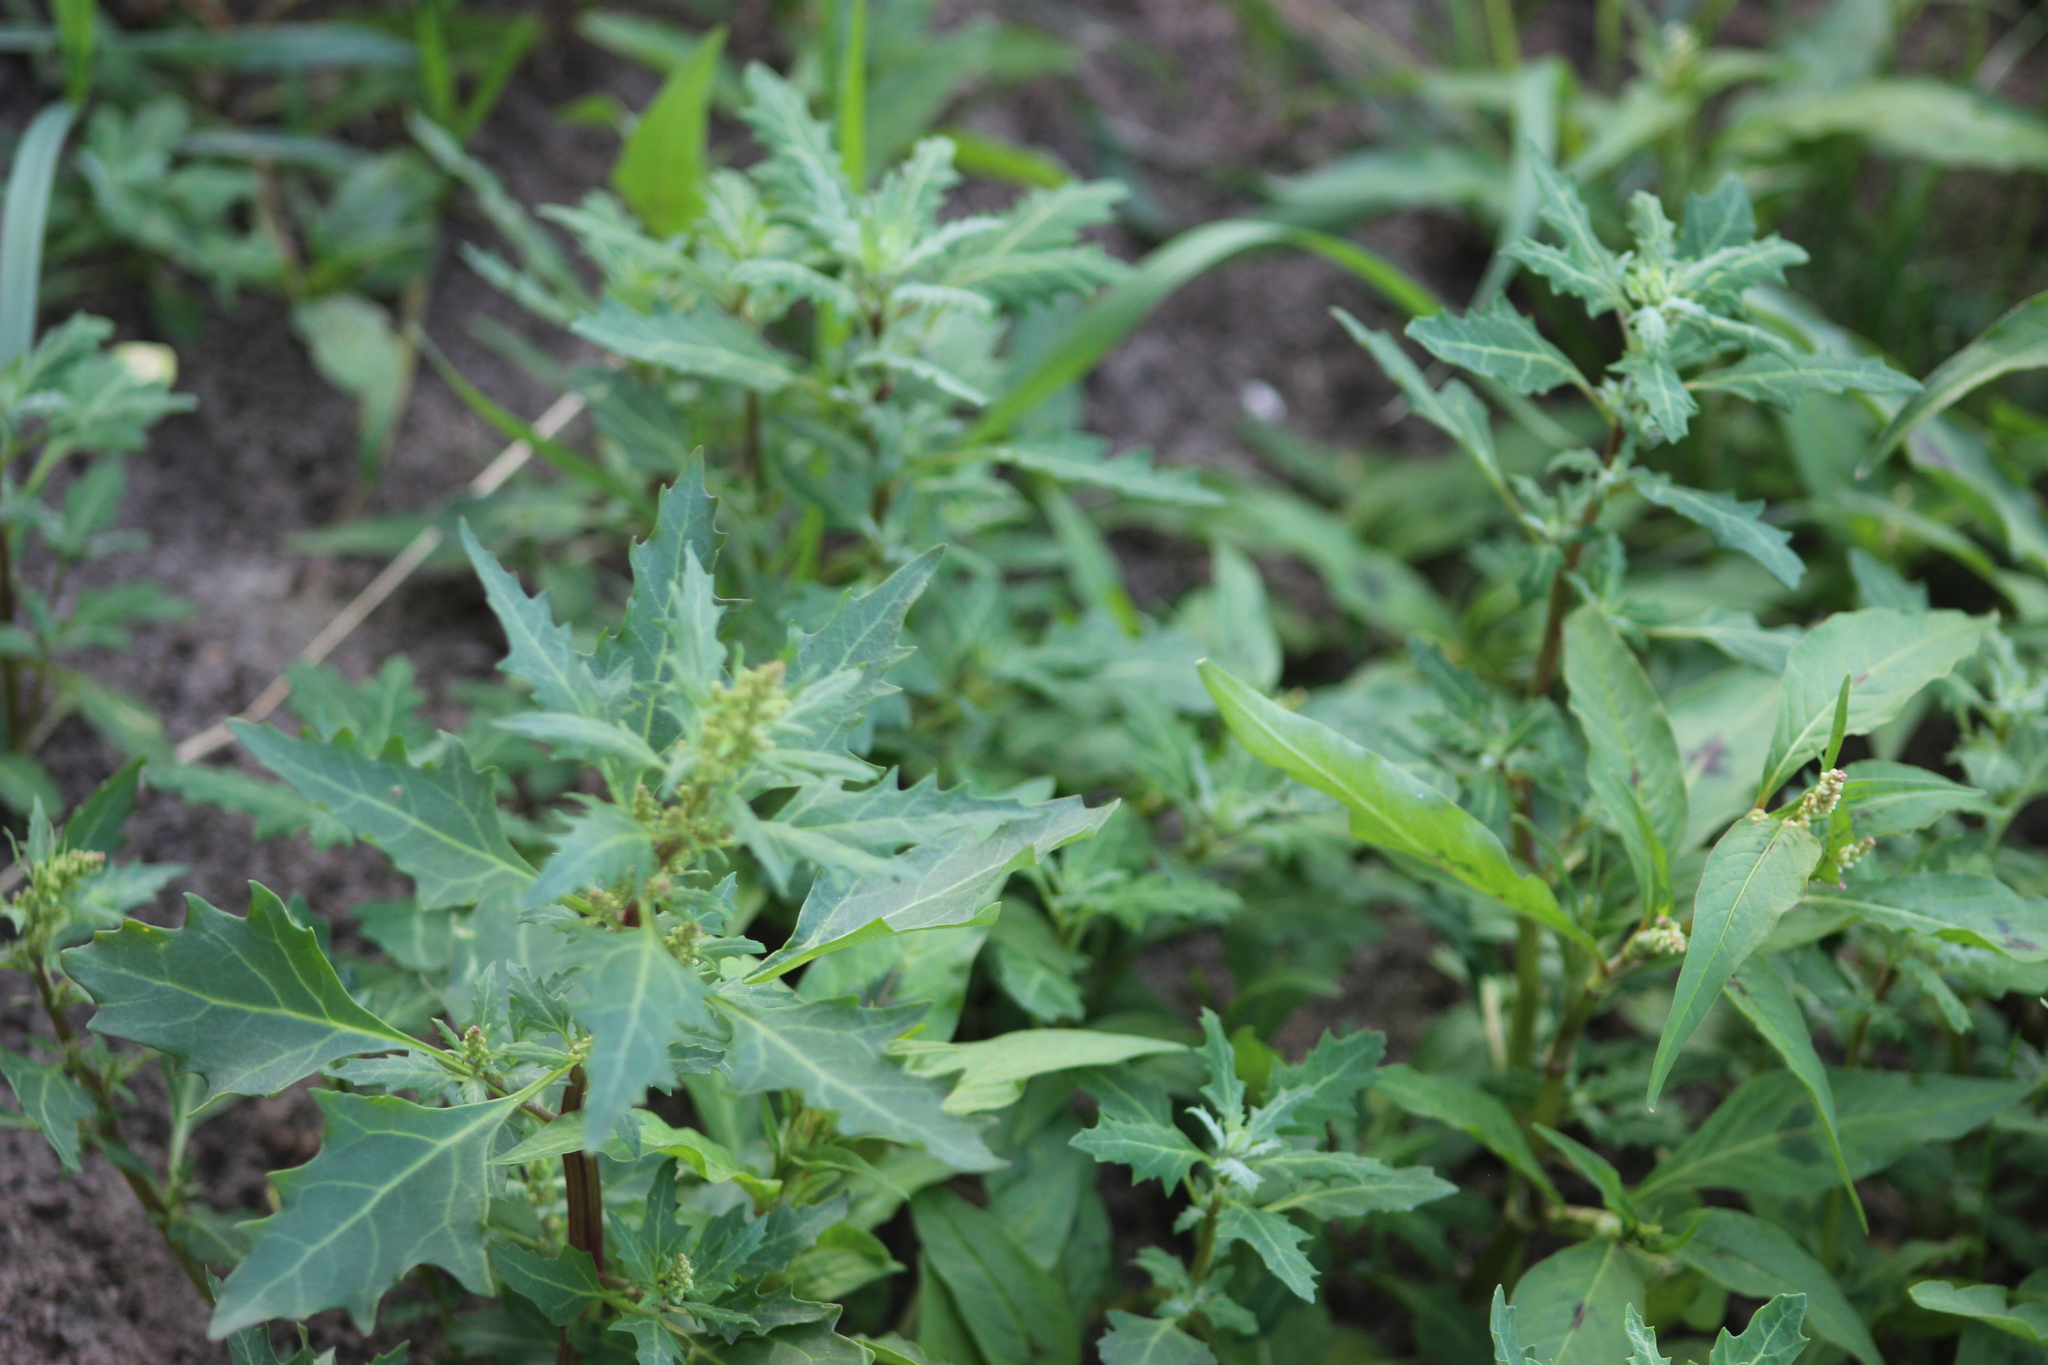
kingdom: Plantae
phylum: Tracheophyta
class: Magnoliopsida
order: Caryophyllales
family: Amaranthaceae
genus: Oxybasis
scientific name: Oxybasis glauca
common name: Glaucous goosefoot
